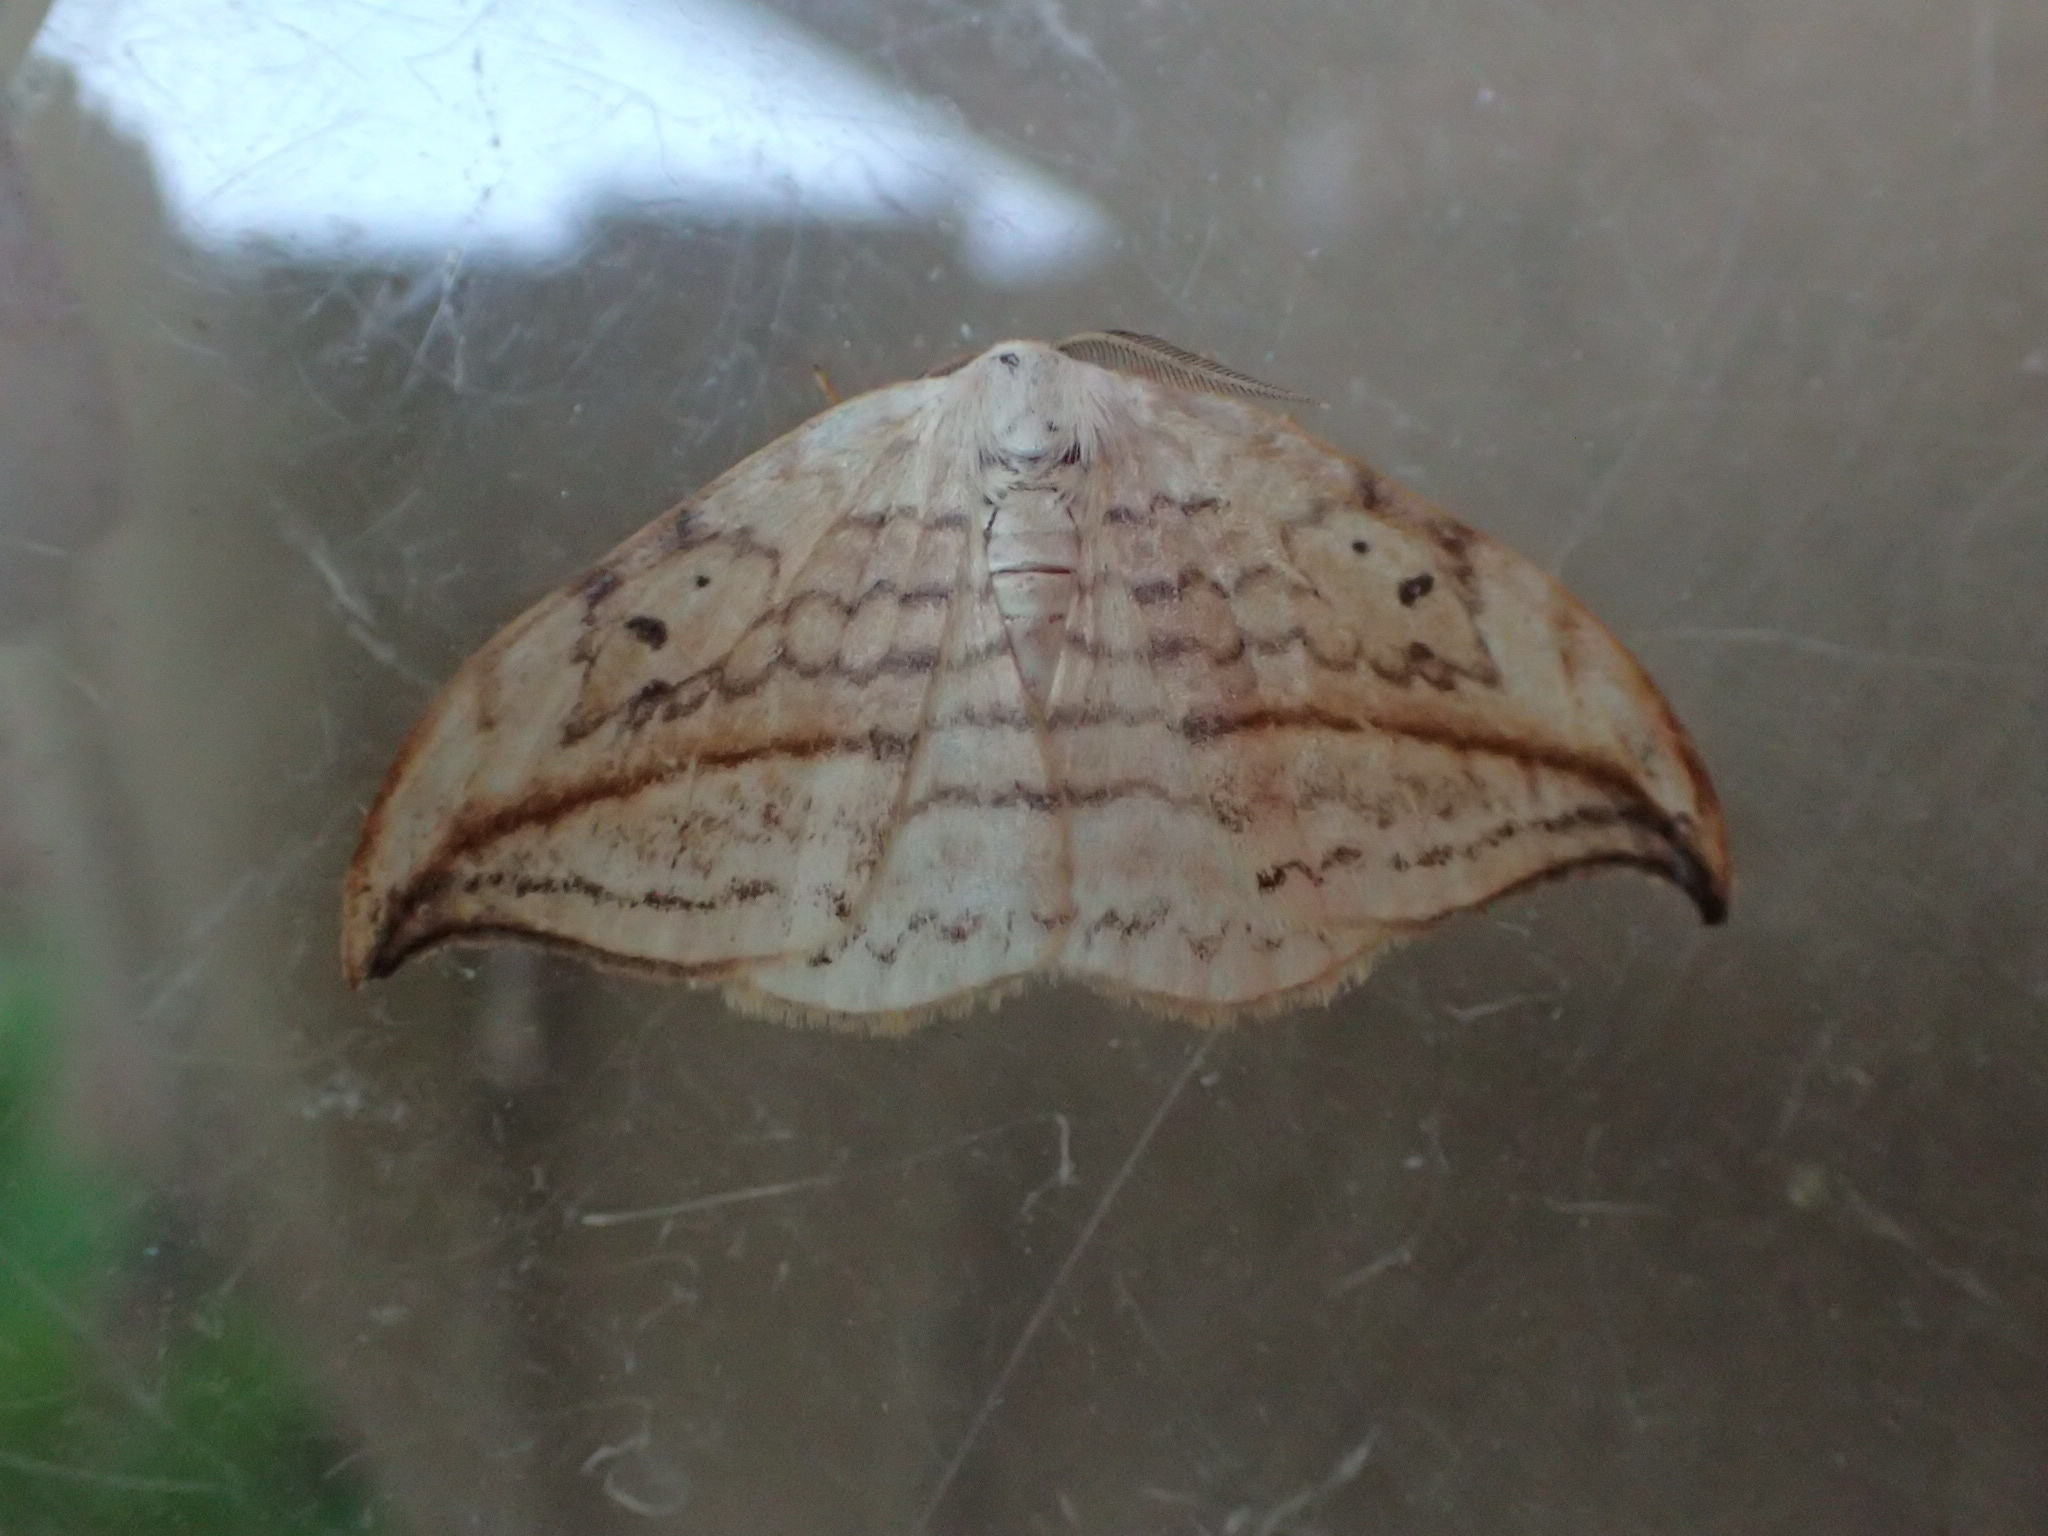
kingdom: Animalia
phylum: Arthropoda
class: Insecta
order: Lepidoptera
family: Drepanidae
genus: Drepana
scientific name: Drepana arcuata
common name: Arched hooktip moth
